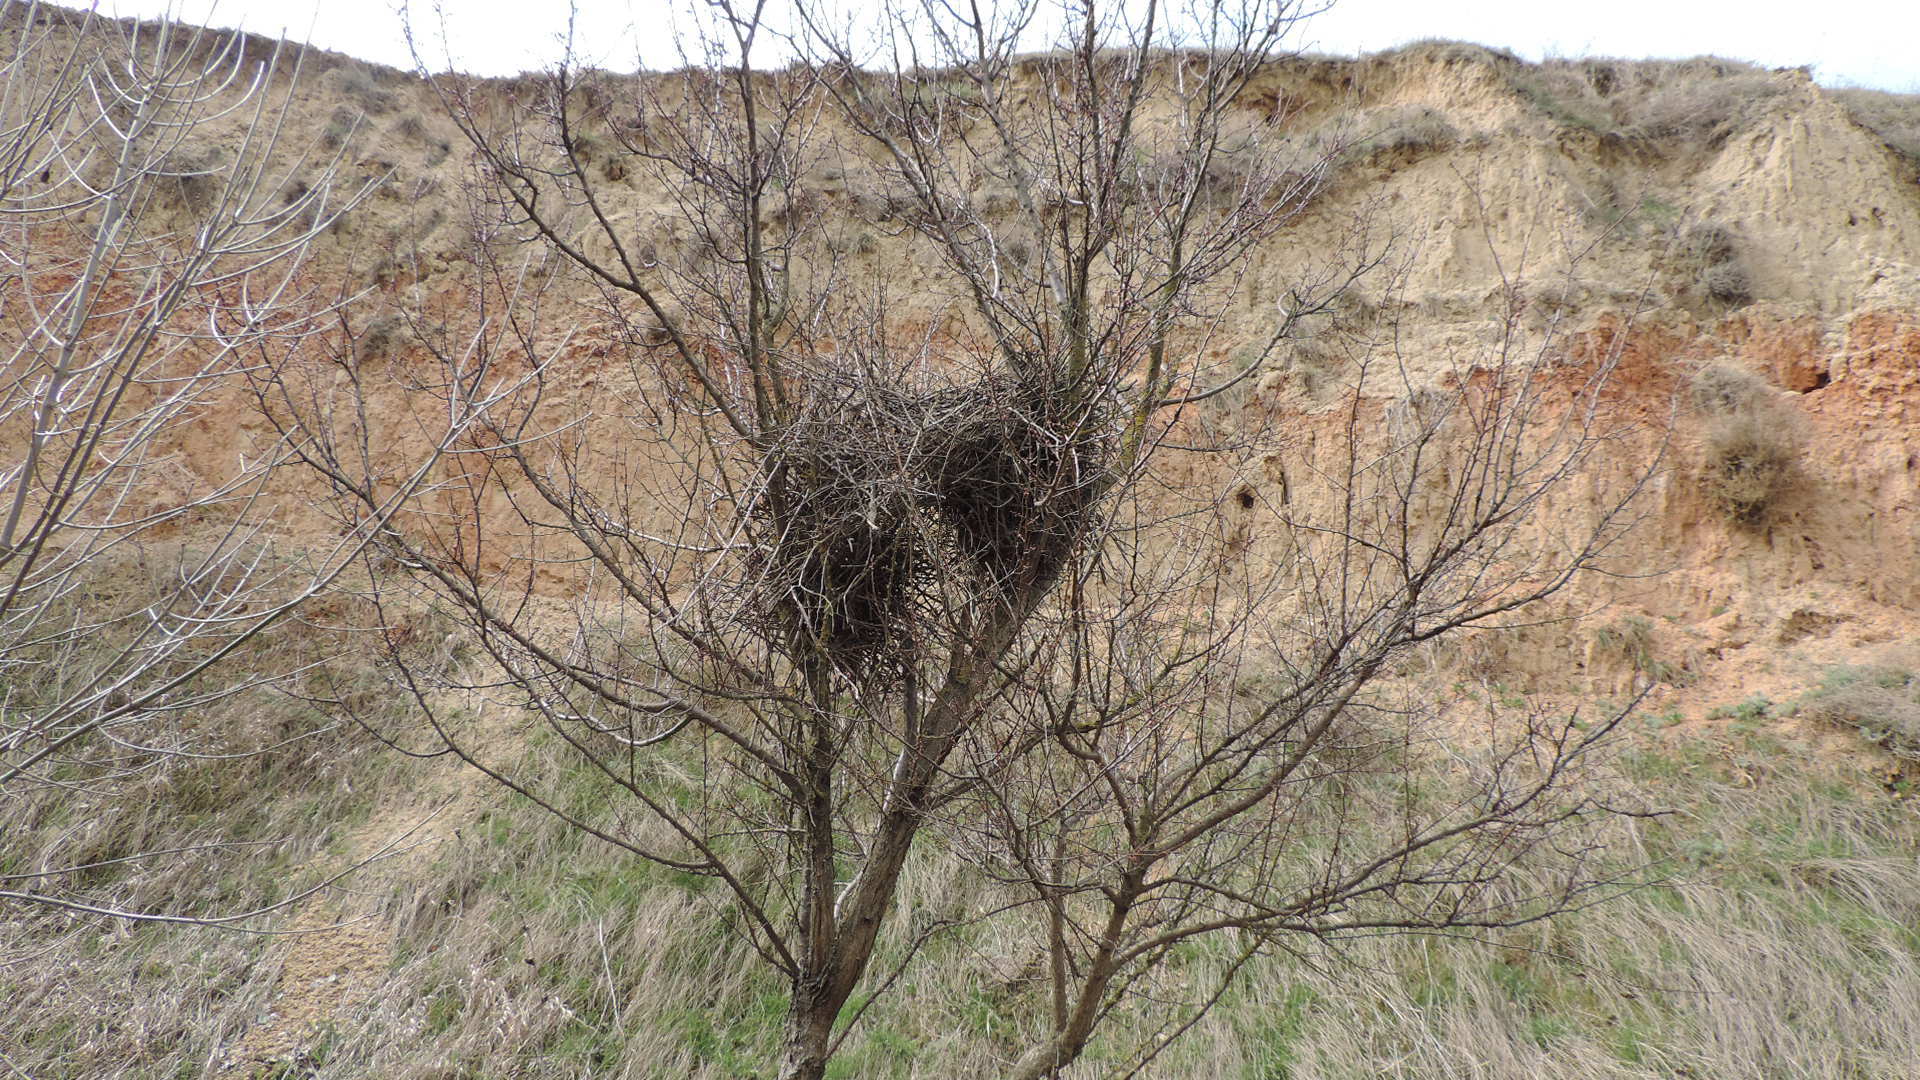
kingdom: Animalia
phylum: Chordata
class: Aves
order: Passeriformes
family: Corvidae
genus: Pica
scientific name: Pica pica
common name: Eurasian magpie
